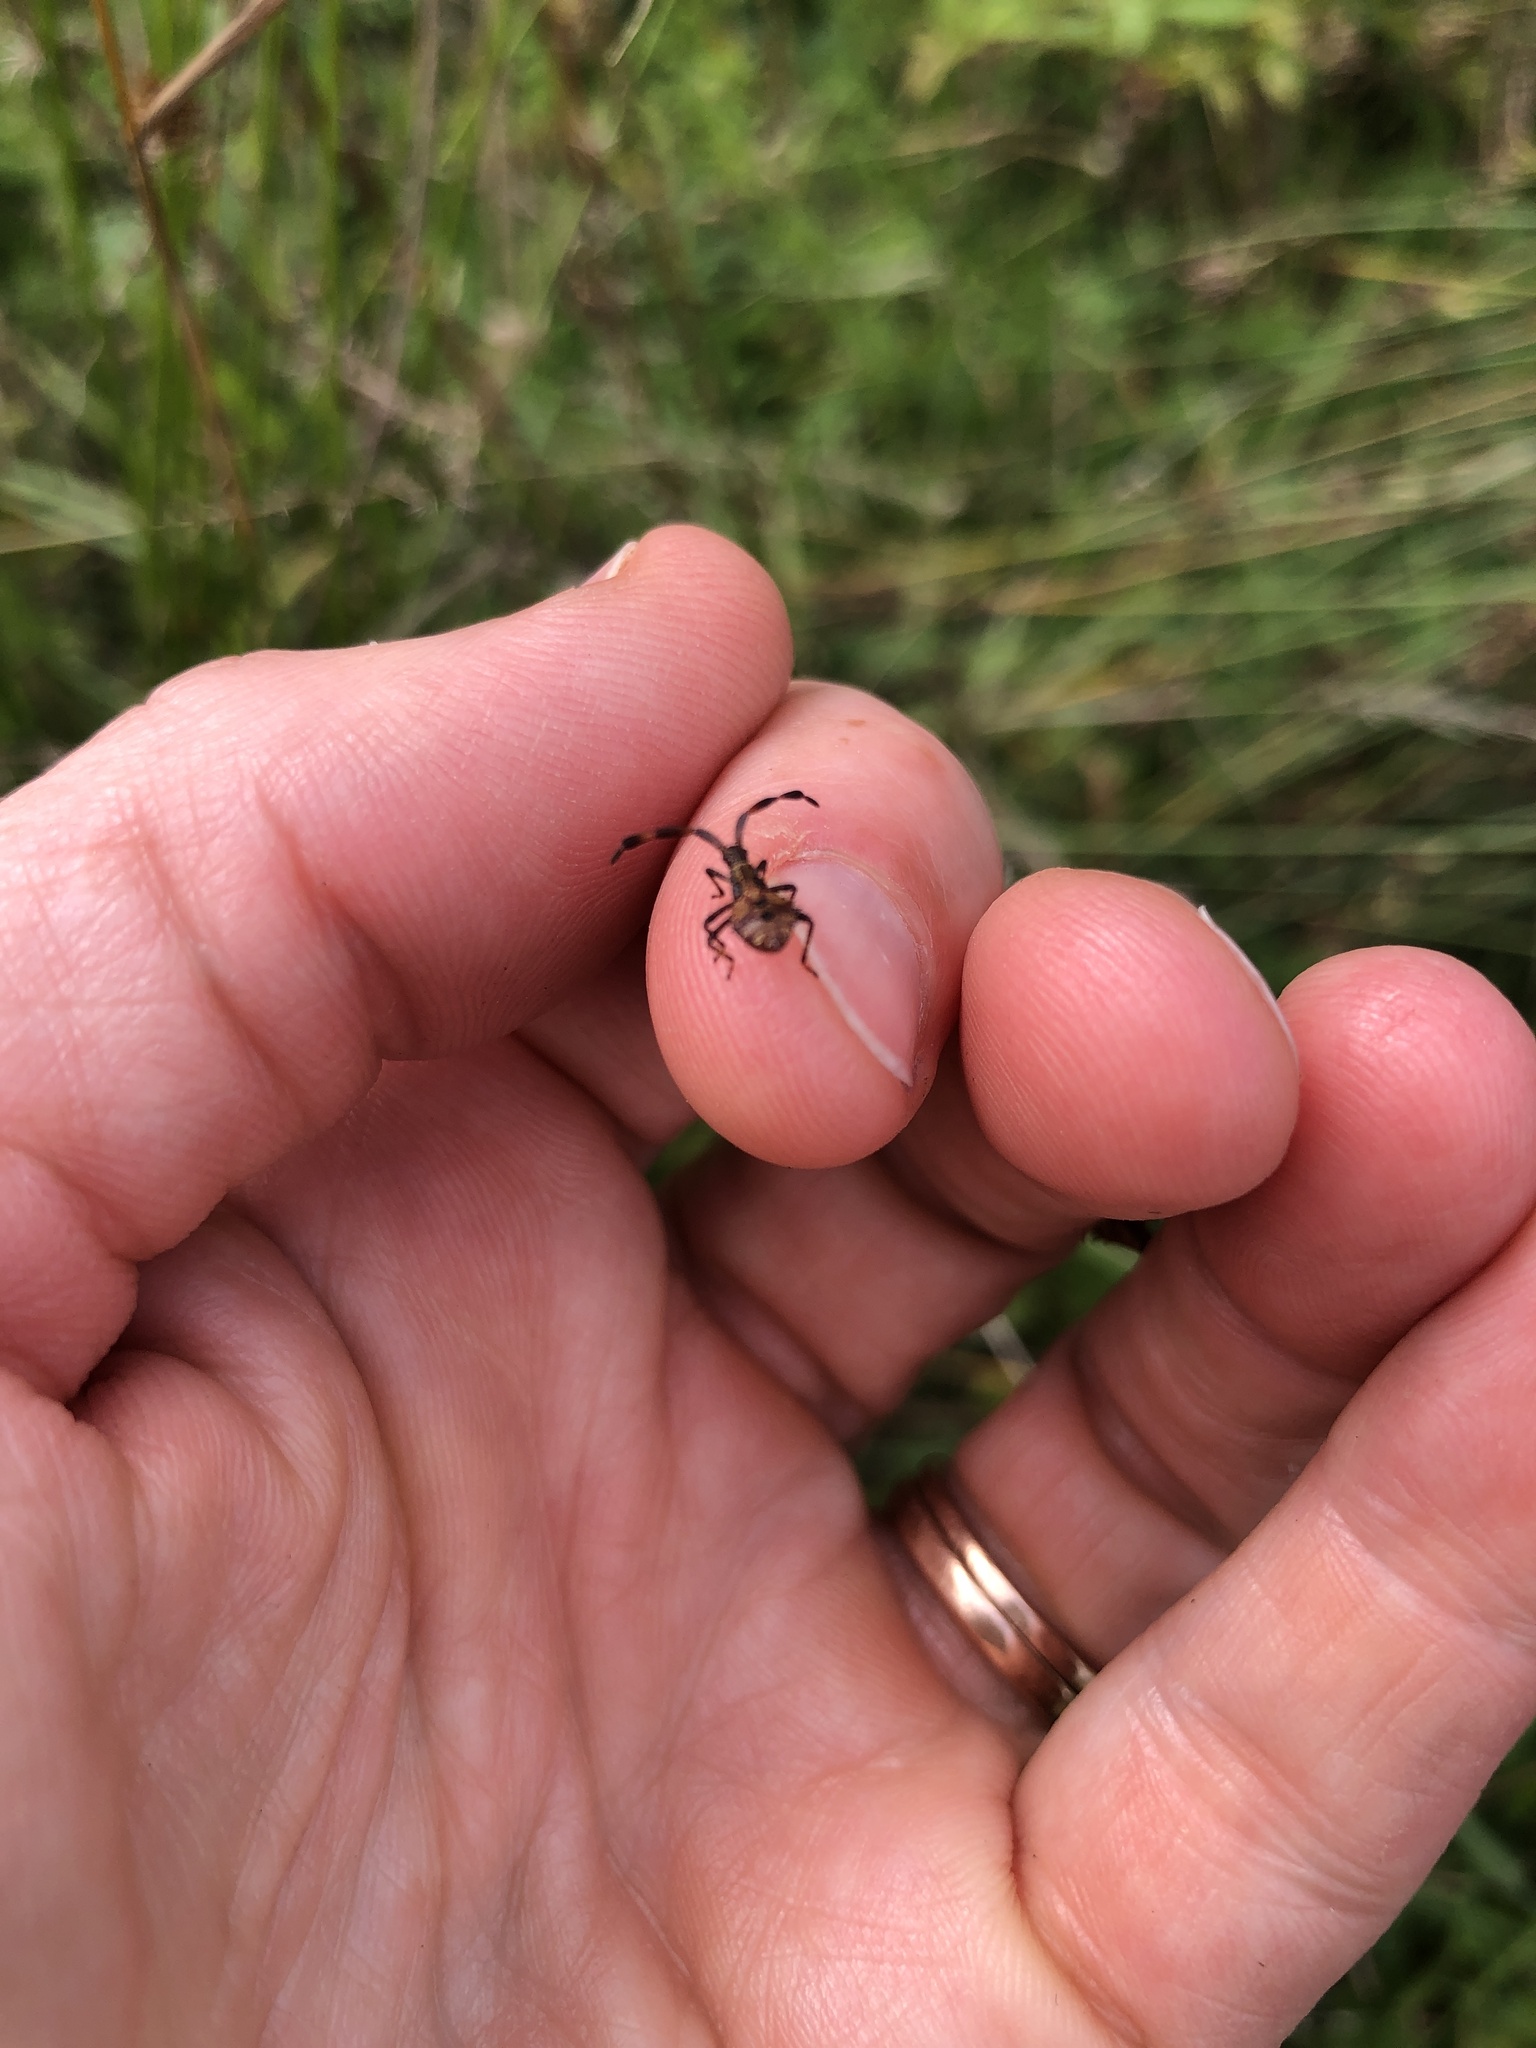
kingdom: Animalia
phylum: Arthropoda
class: Insecta
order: Hemiptera
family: Coreidae
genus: Coreus
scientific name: Coreus marginatus
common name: Dock bug
